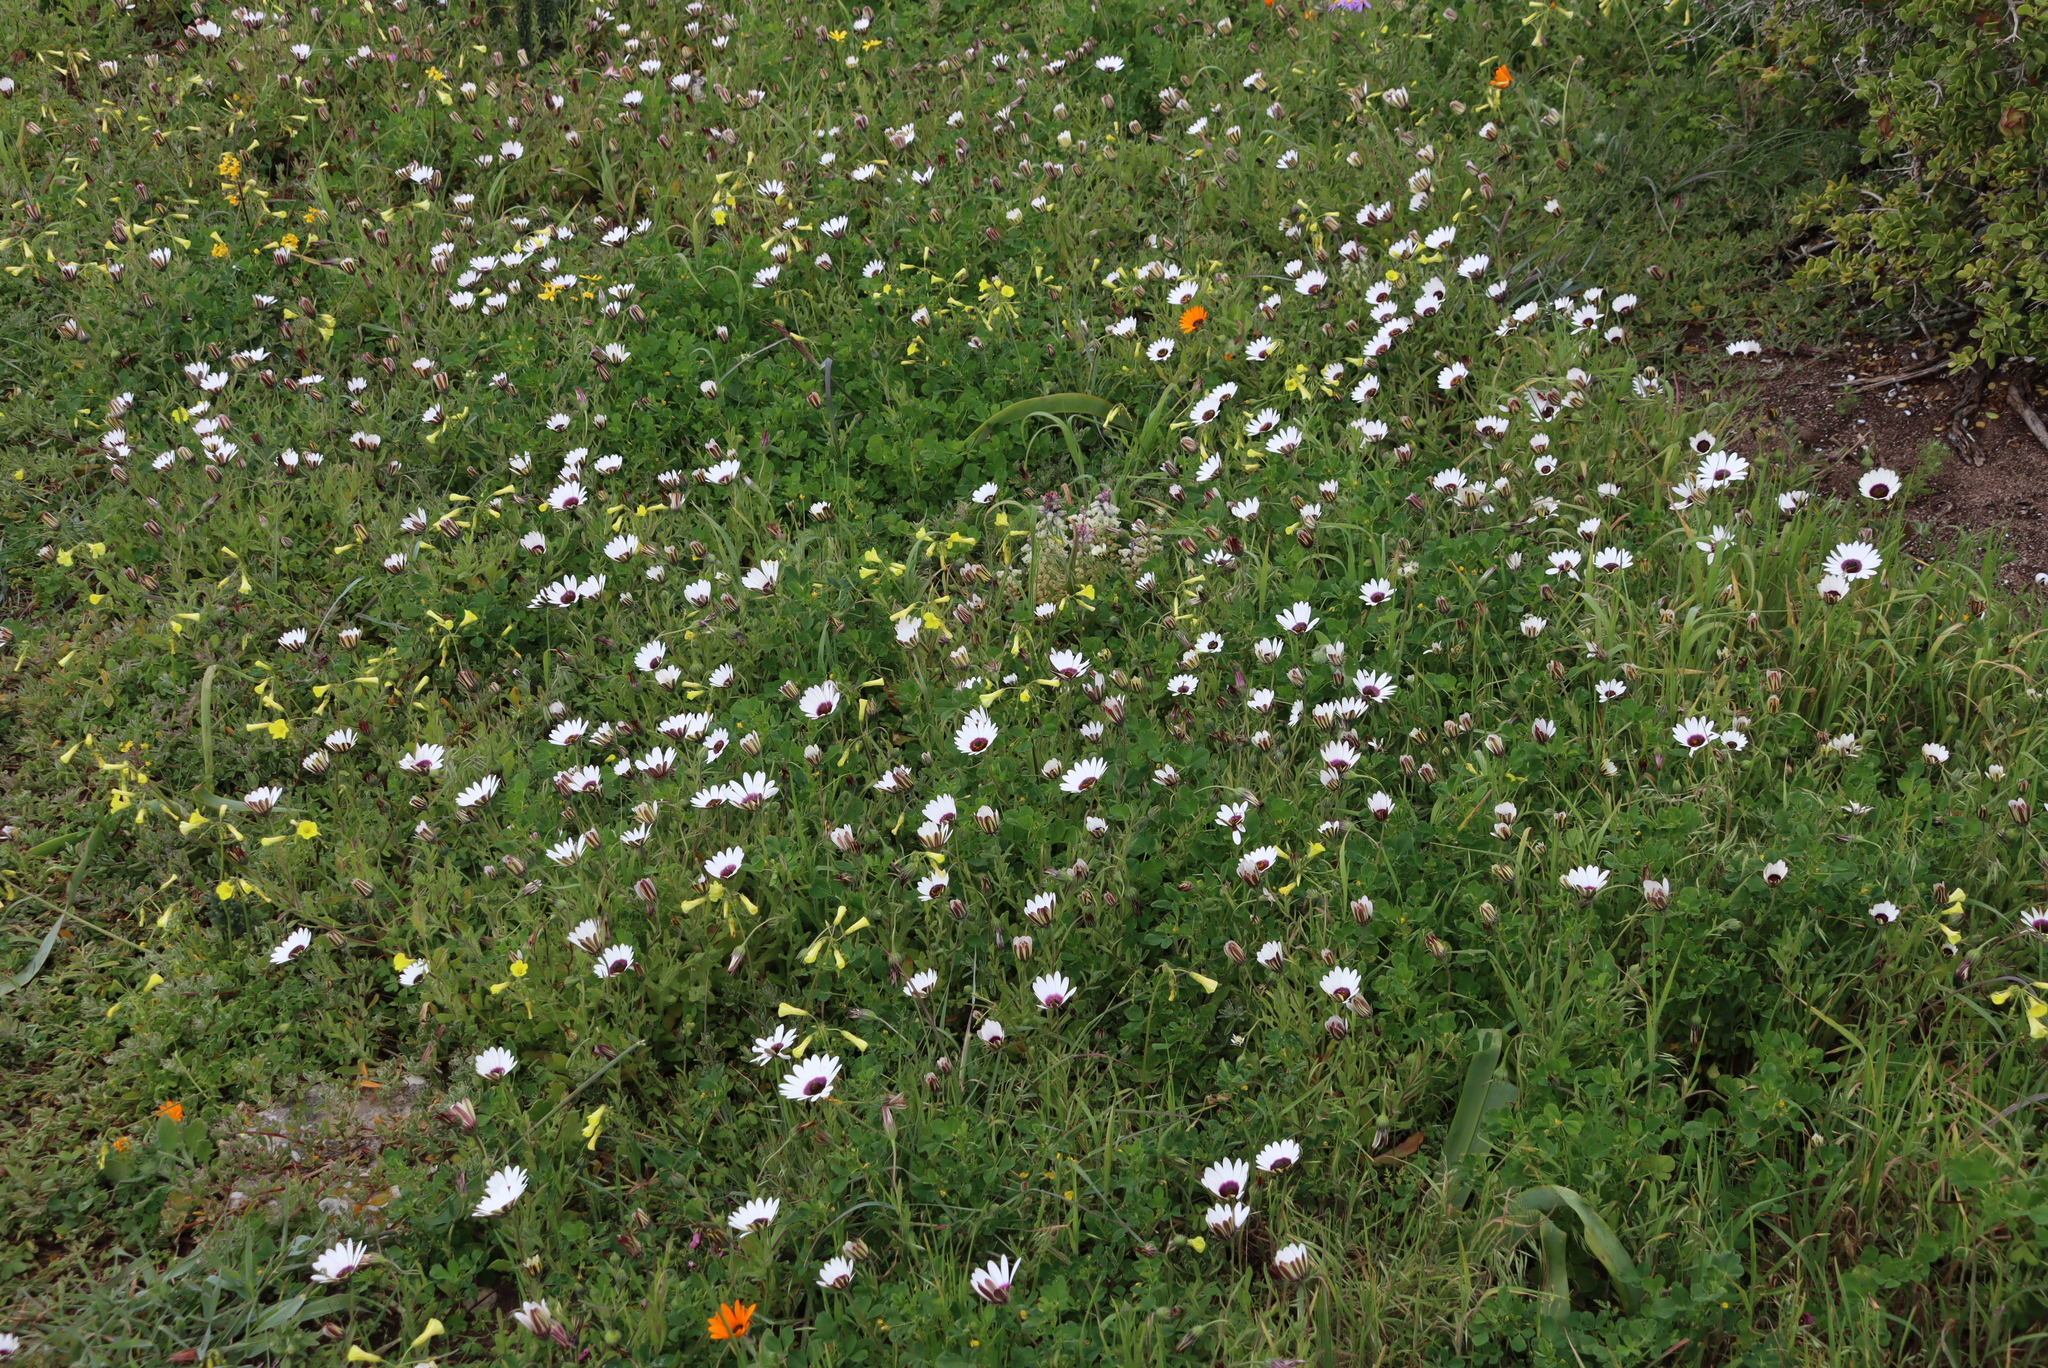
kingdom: Plantae
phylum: Tracheophyta
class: Magnoliopsida
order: Oxalidales
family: Oxalidaceae
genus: Oxalis
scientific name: Oxalis pes-caprae
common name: Bermuda-buttercup
